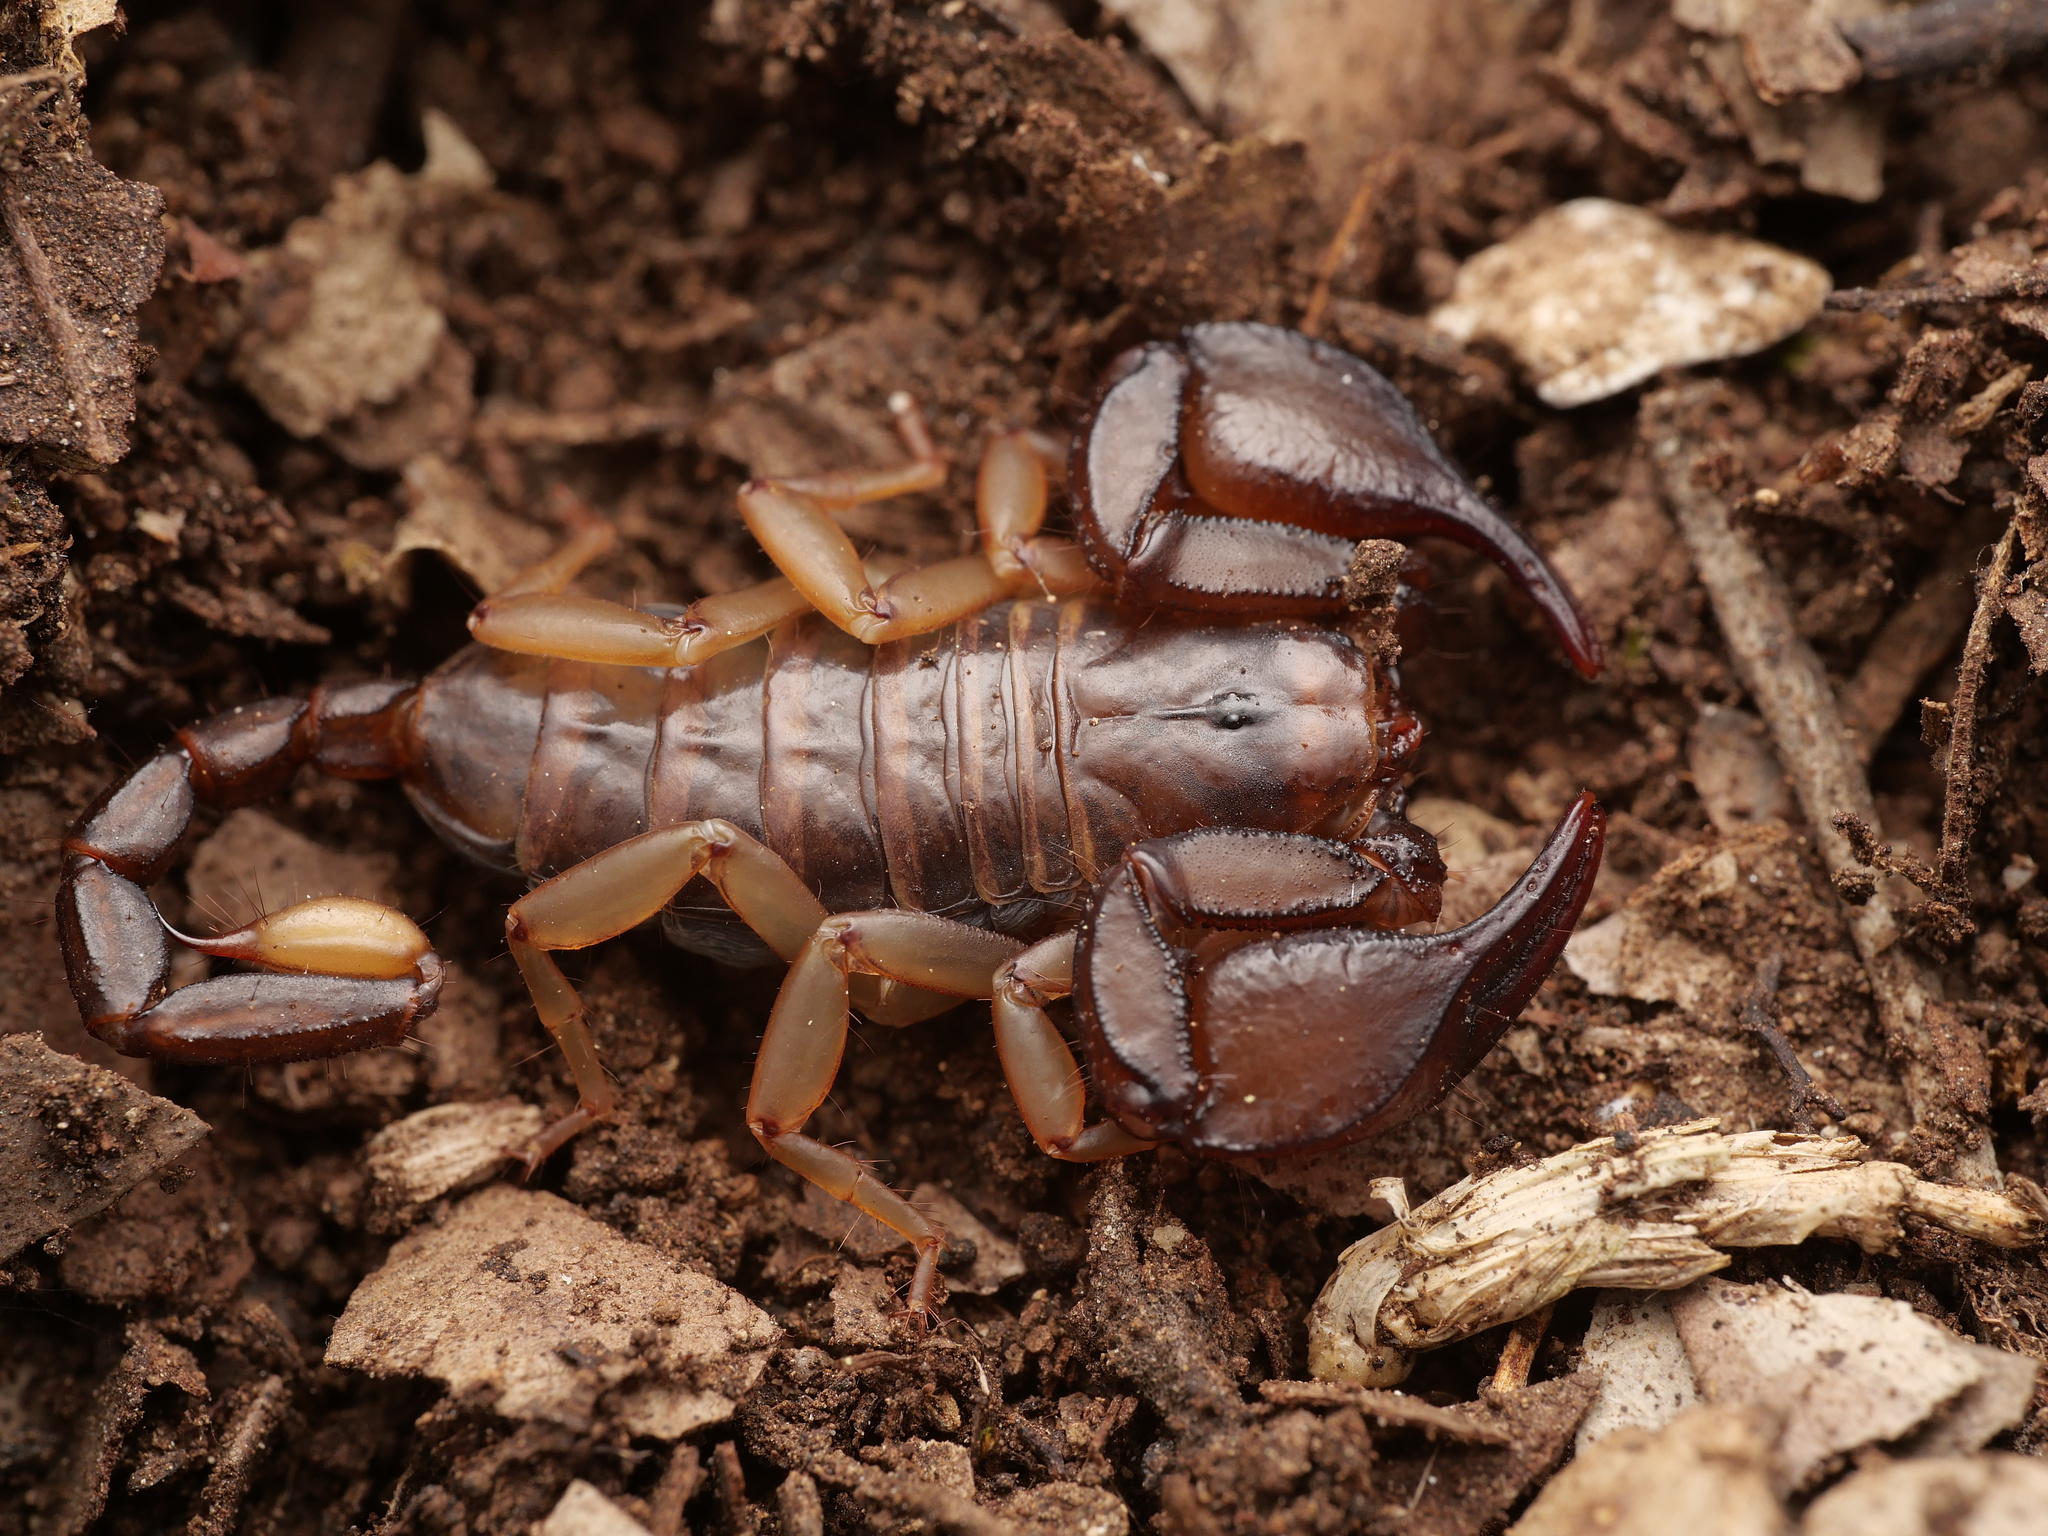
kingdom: Animalia
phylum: Arthropoda
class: Arachnida
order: Scorpiones
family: Euscorpiidae
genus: Euscorpius
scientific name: Euscorpius
